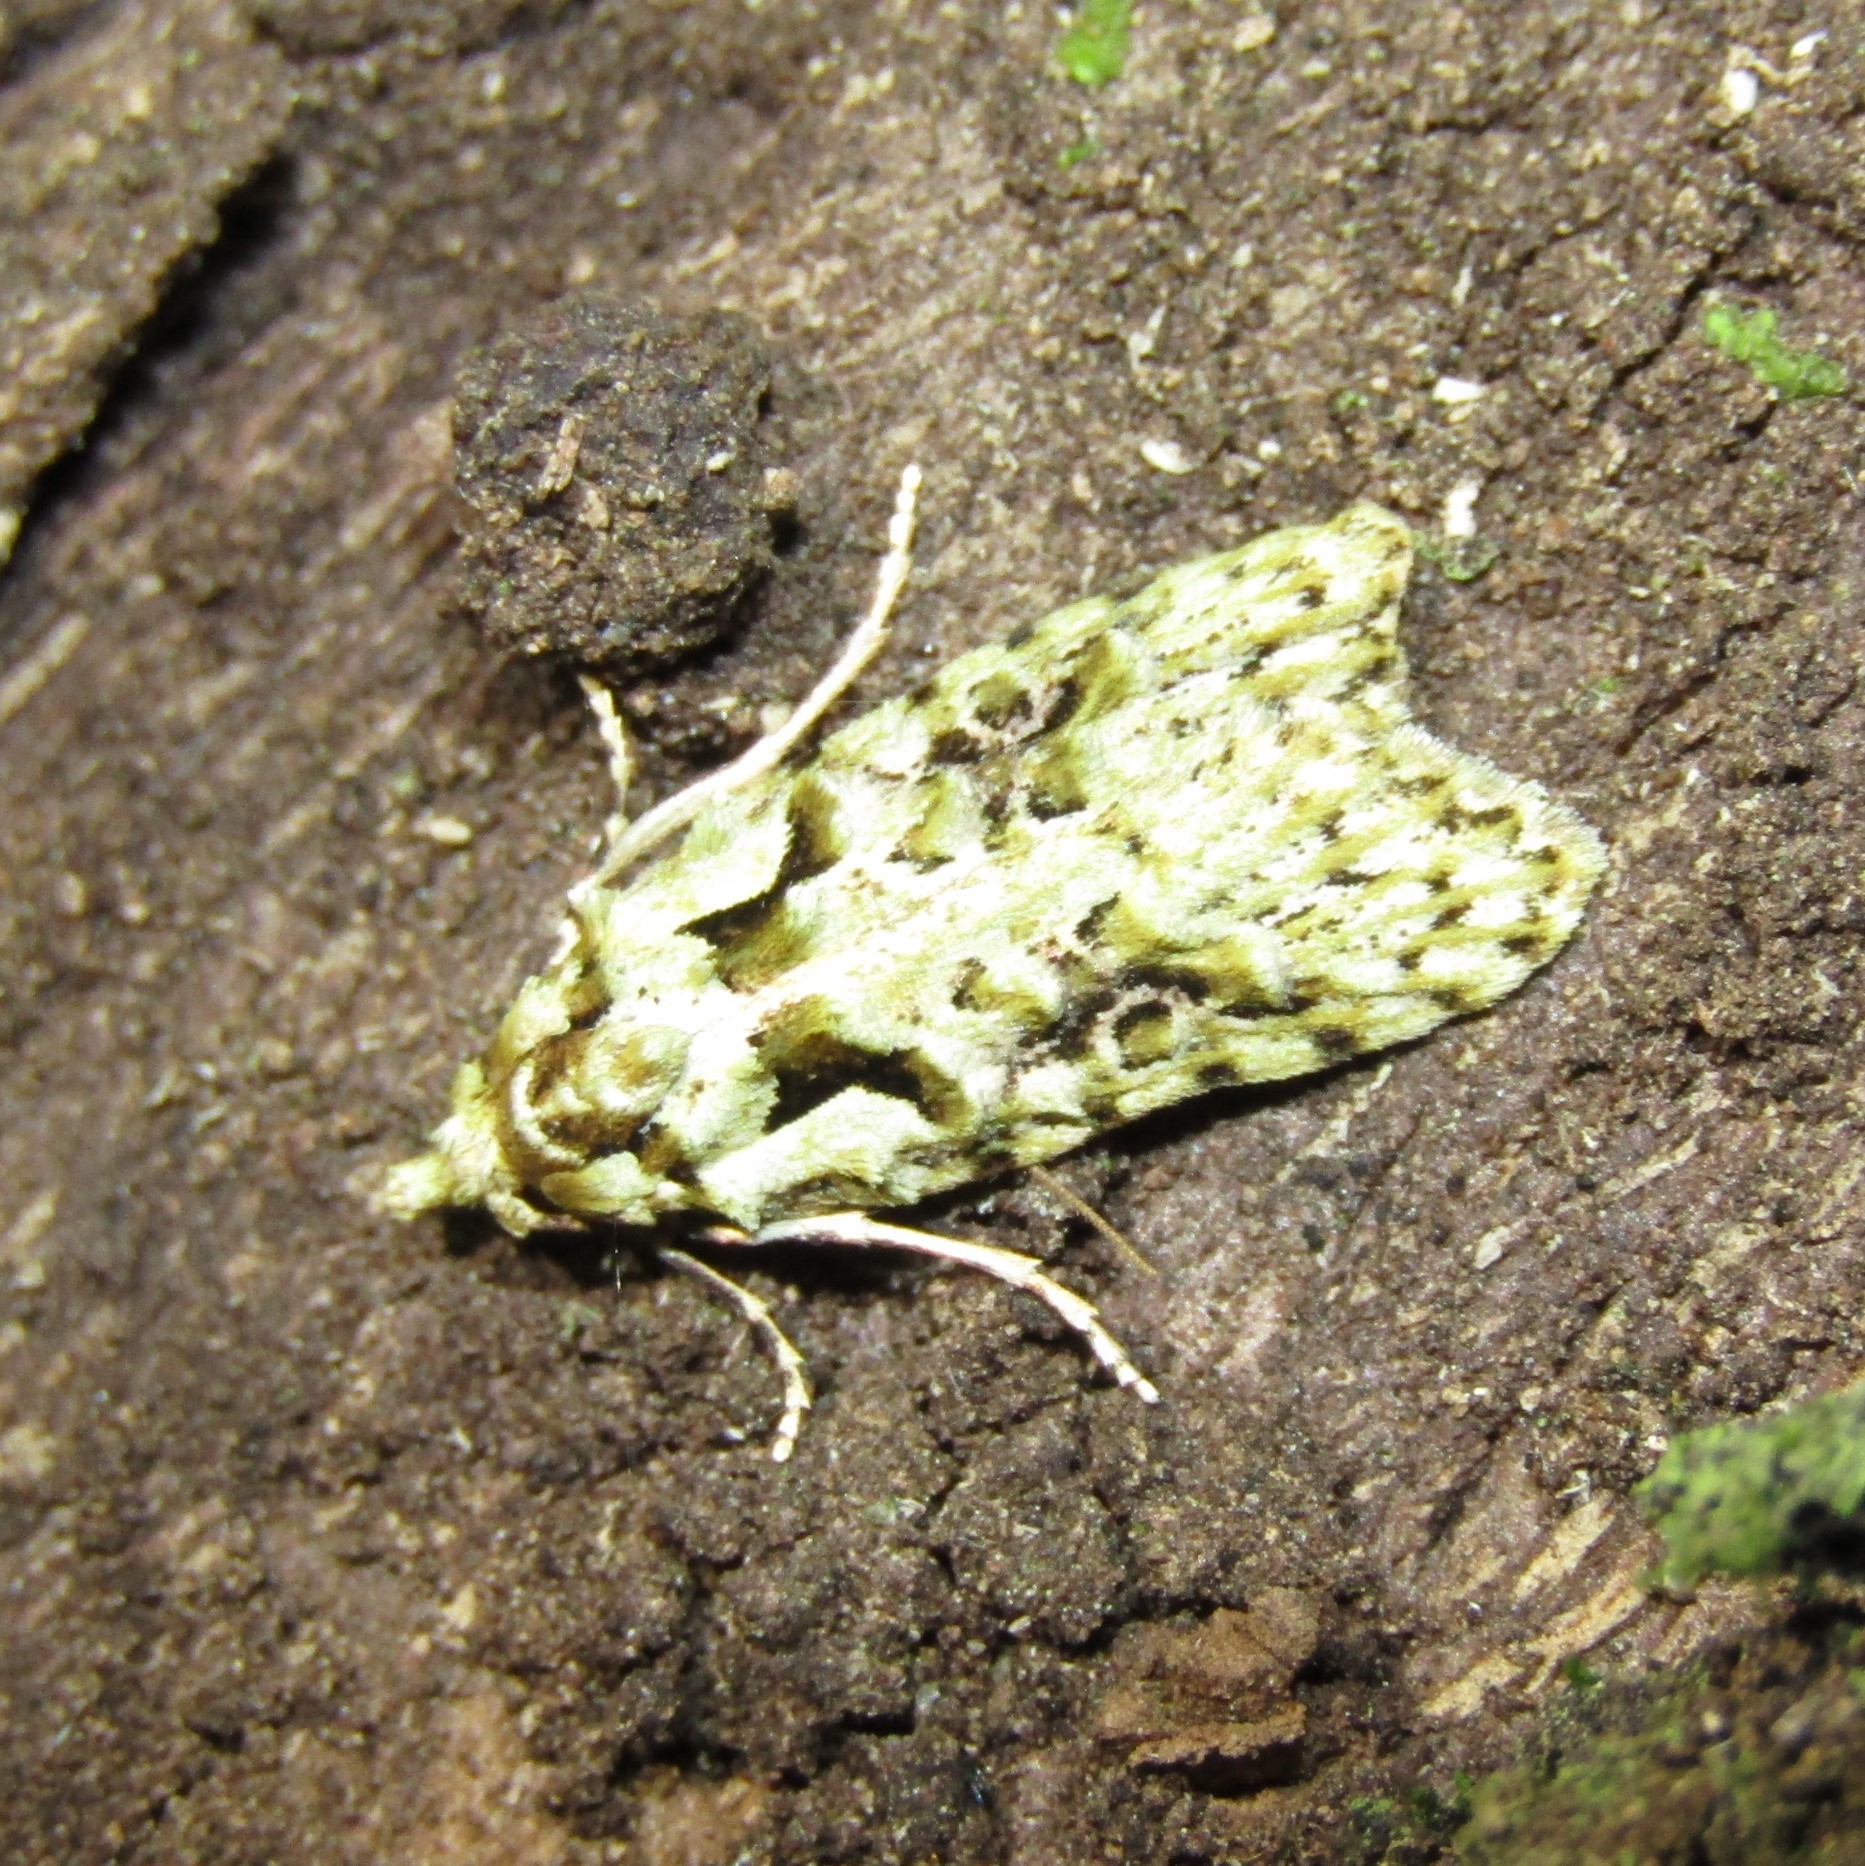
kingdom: Animalia
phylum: Arthropoda
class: Insecta
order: Lepidoptera
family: Carposinidae
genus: Carposina
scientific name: Carposina Heterocrossa eriphylla
